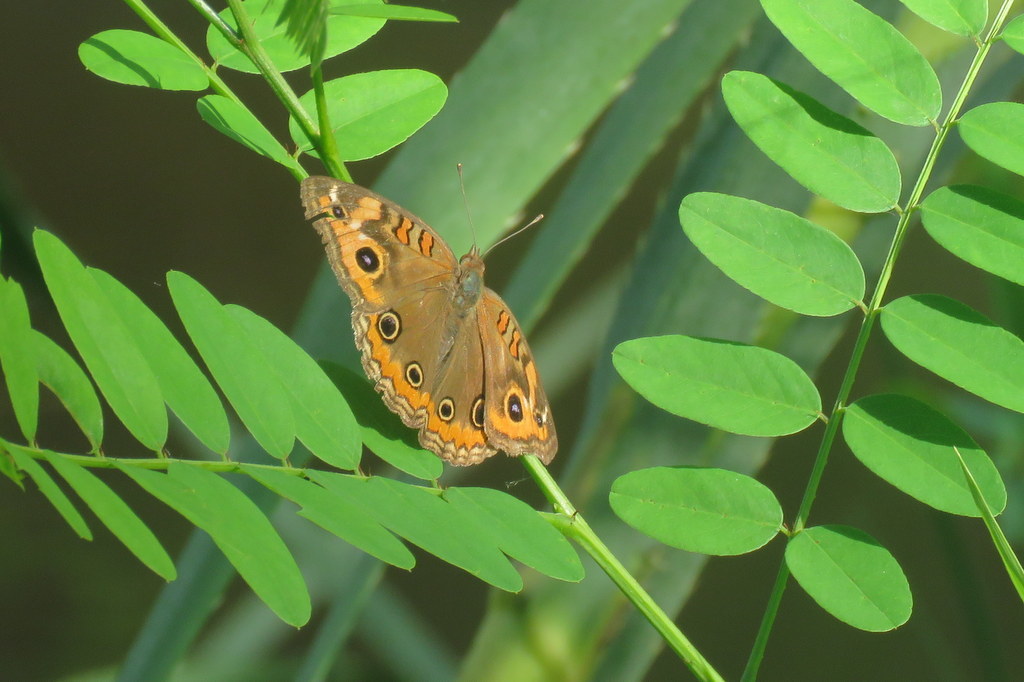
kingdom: Animalia
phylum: Arthropoda
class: Insecta
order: Lepidoptera
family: Nymphalidae
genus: Junonia
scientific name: Junonia lavinia
